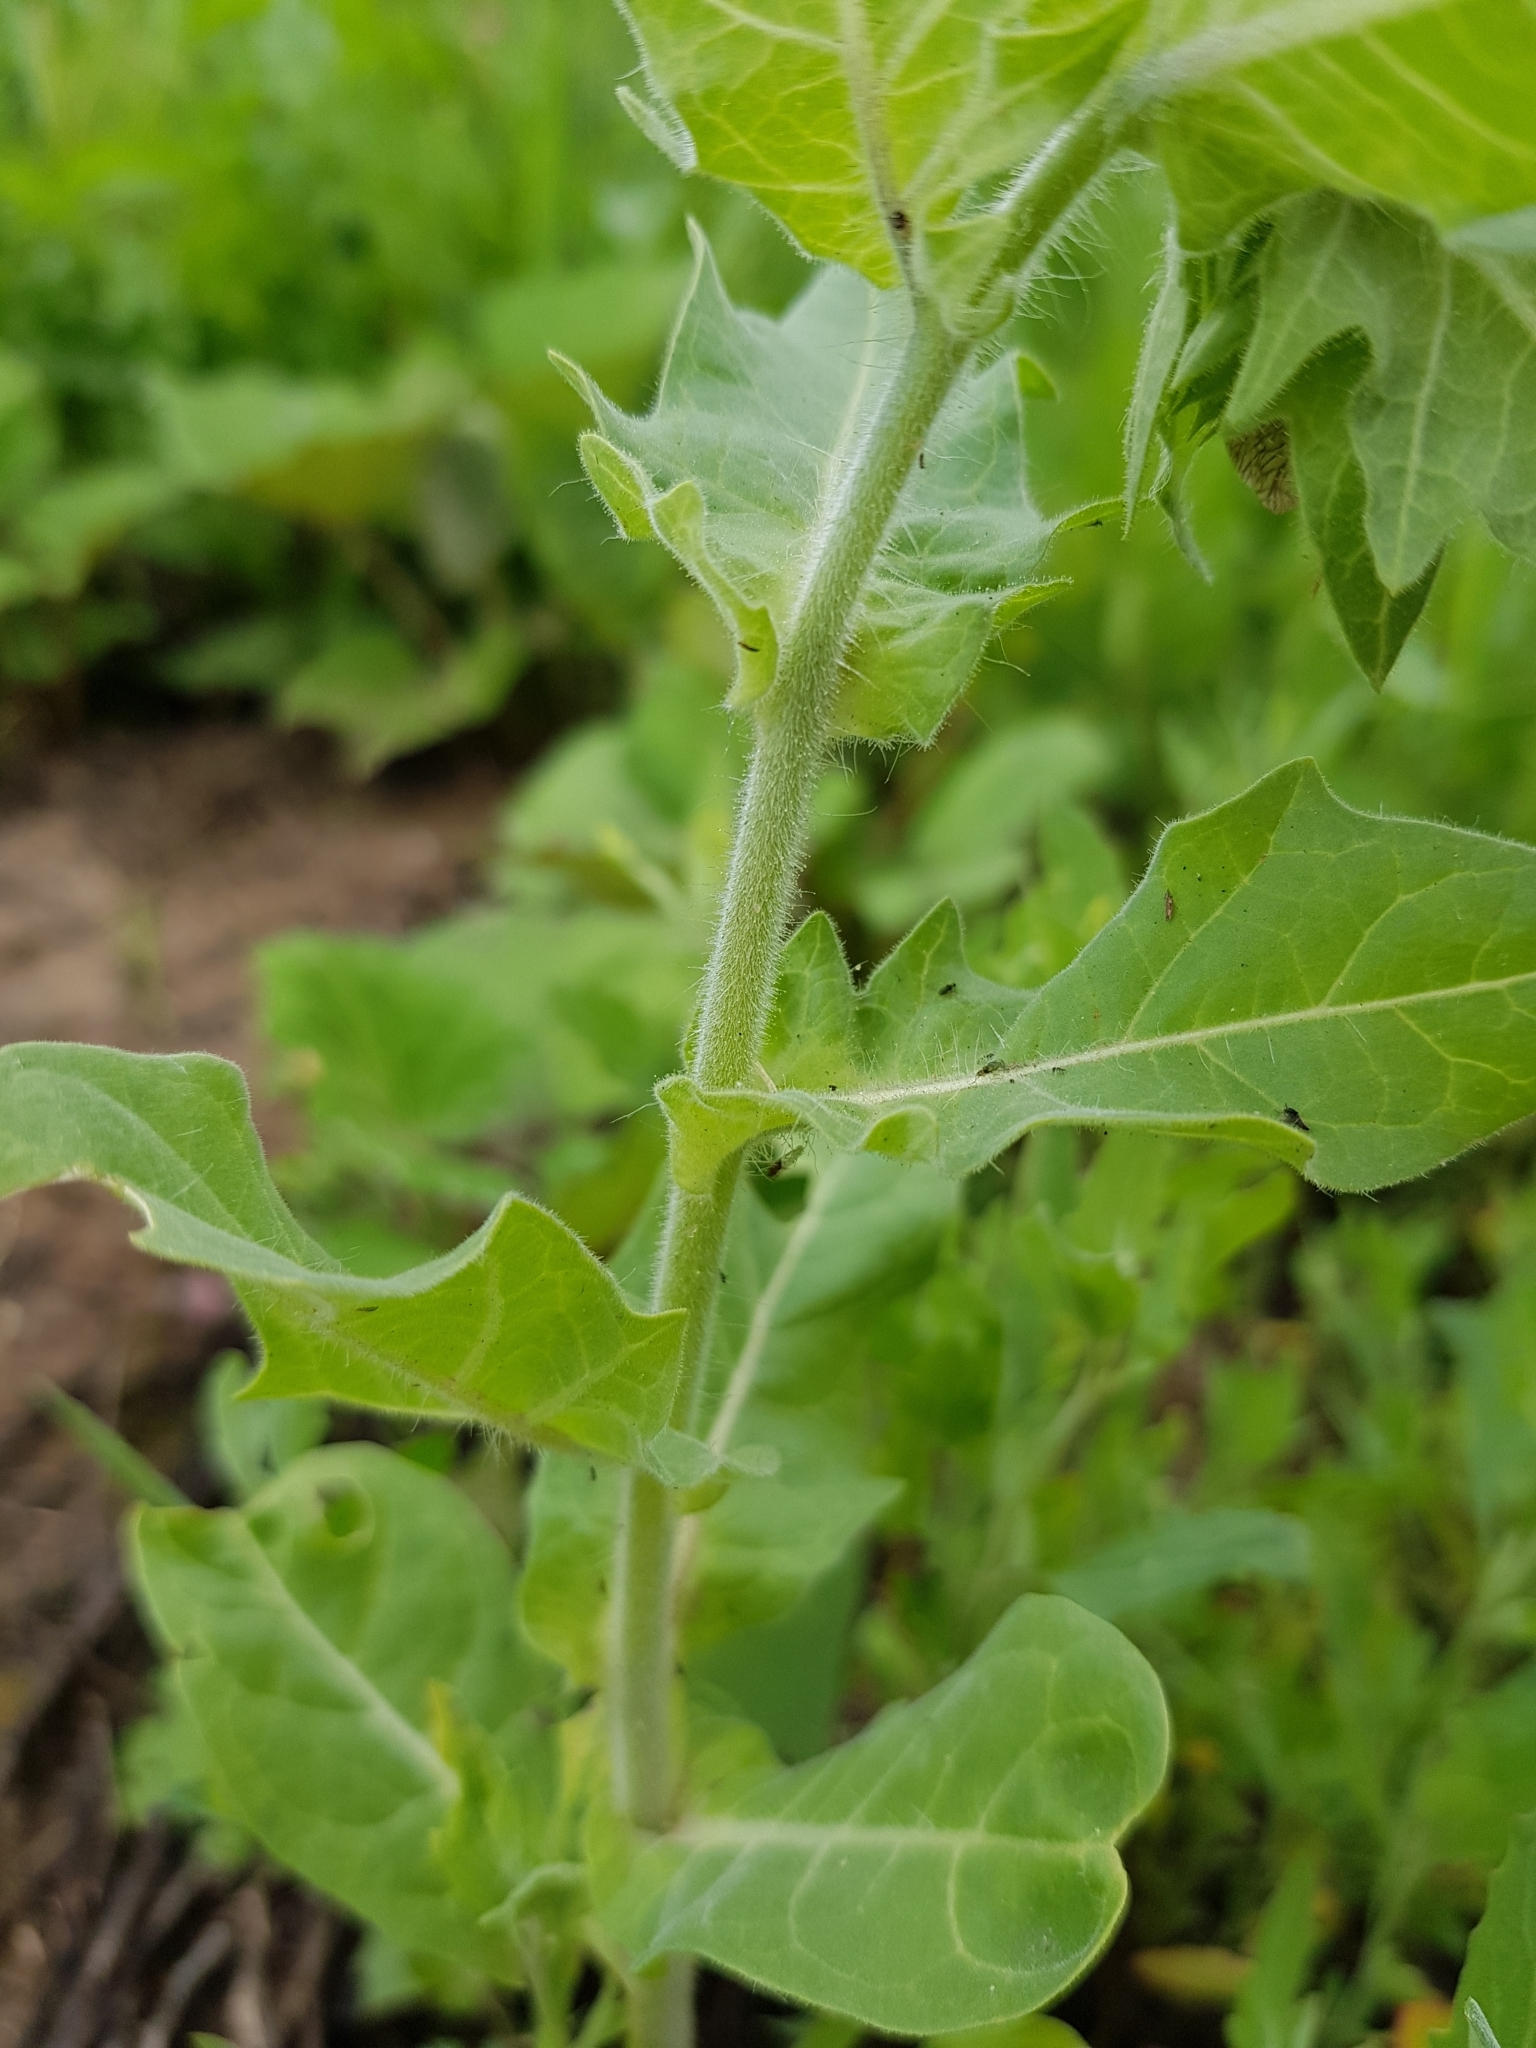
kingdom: Plantae
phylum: Tracheophyta
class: Magnoliopsida
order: Solanales
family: Solanaceae
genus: Hyoscyamus
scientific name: Hyoscyamus niger
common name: Henbane
